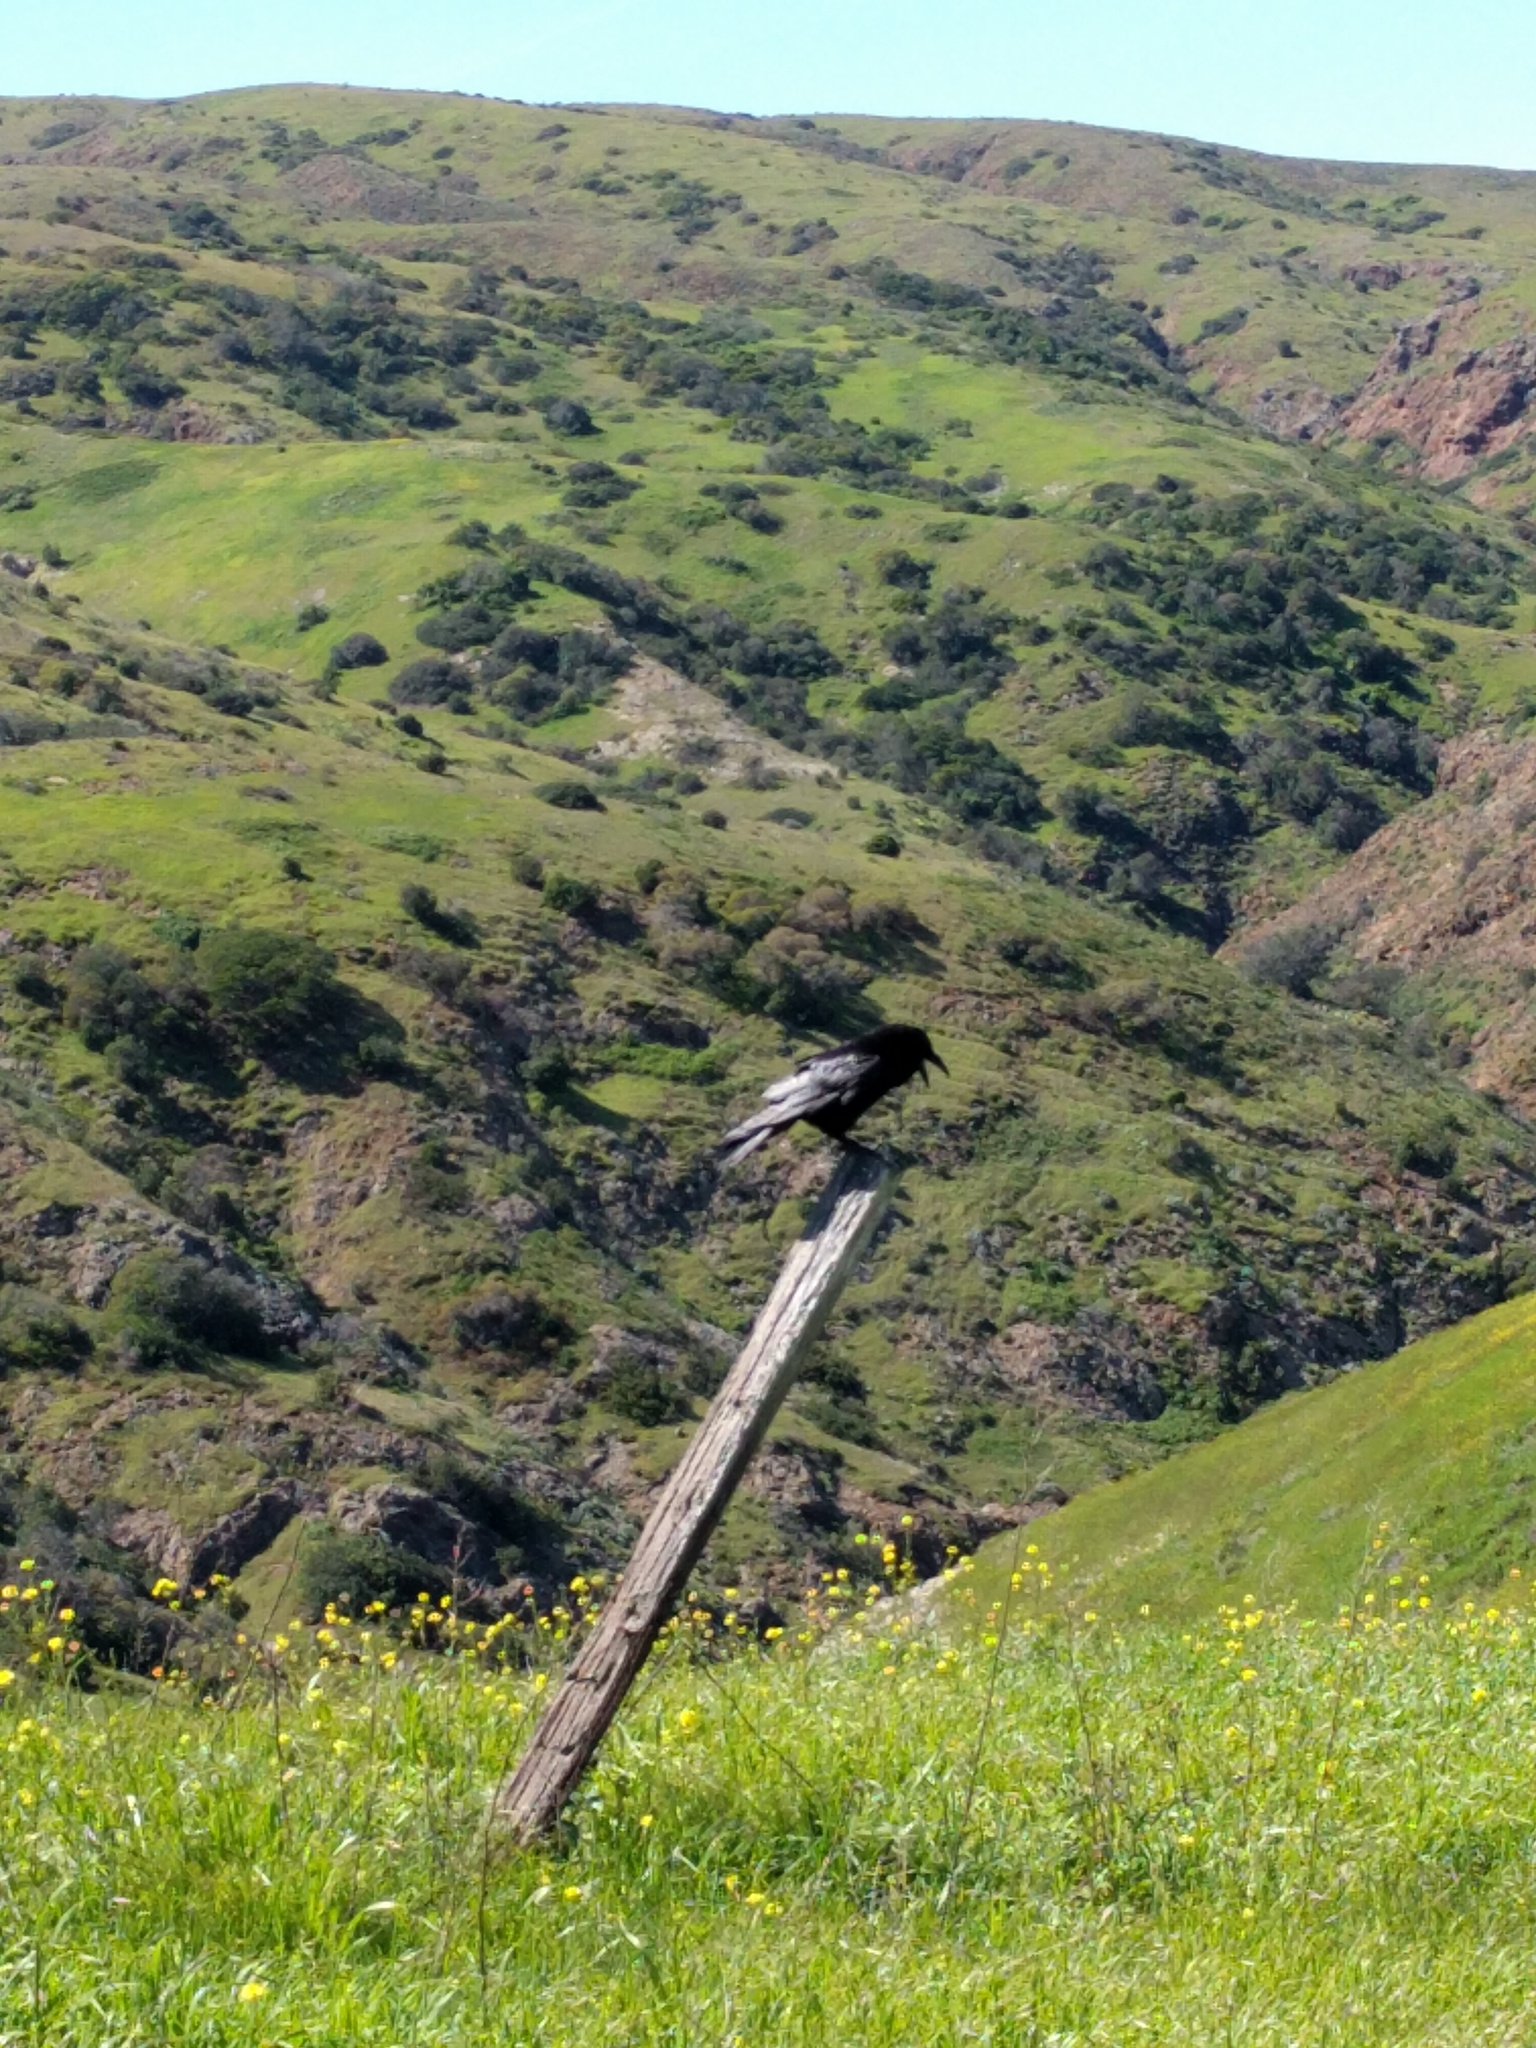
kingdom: Animalia
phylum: Chordata
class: Aves
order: Passeriformes
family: Corvidae
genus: Corvus
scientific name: Corvus corax
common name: Common raven
